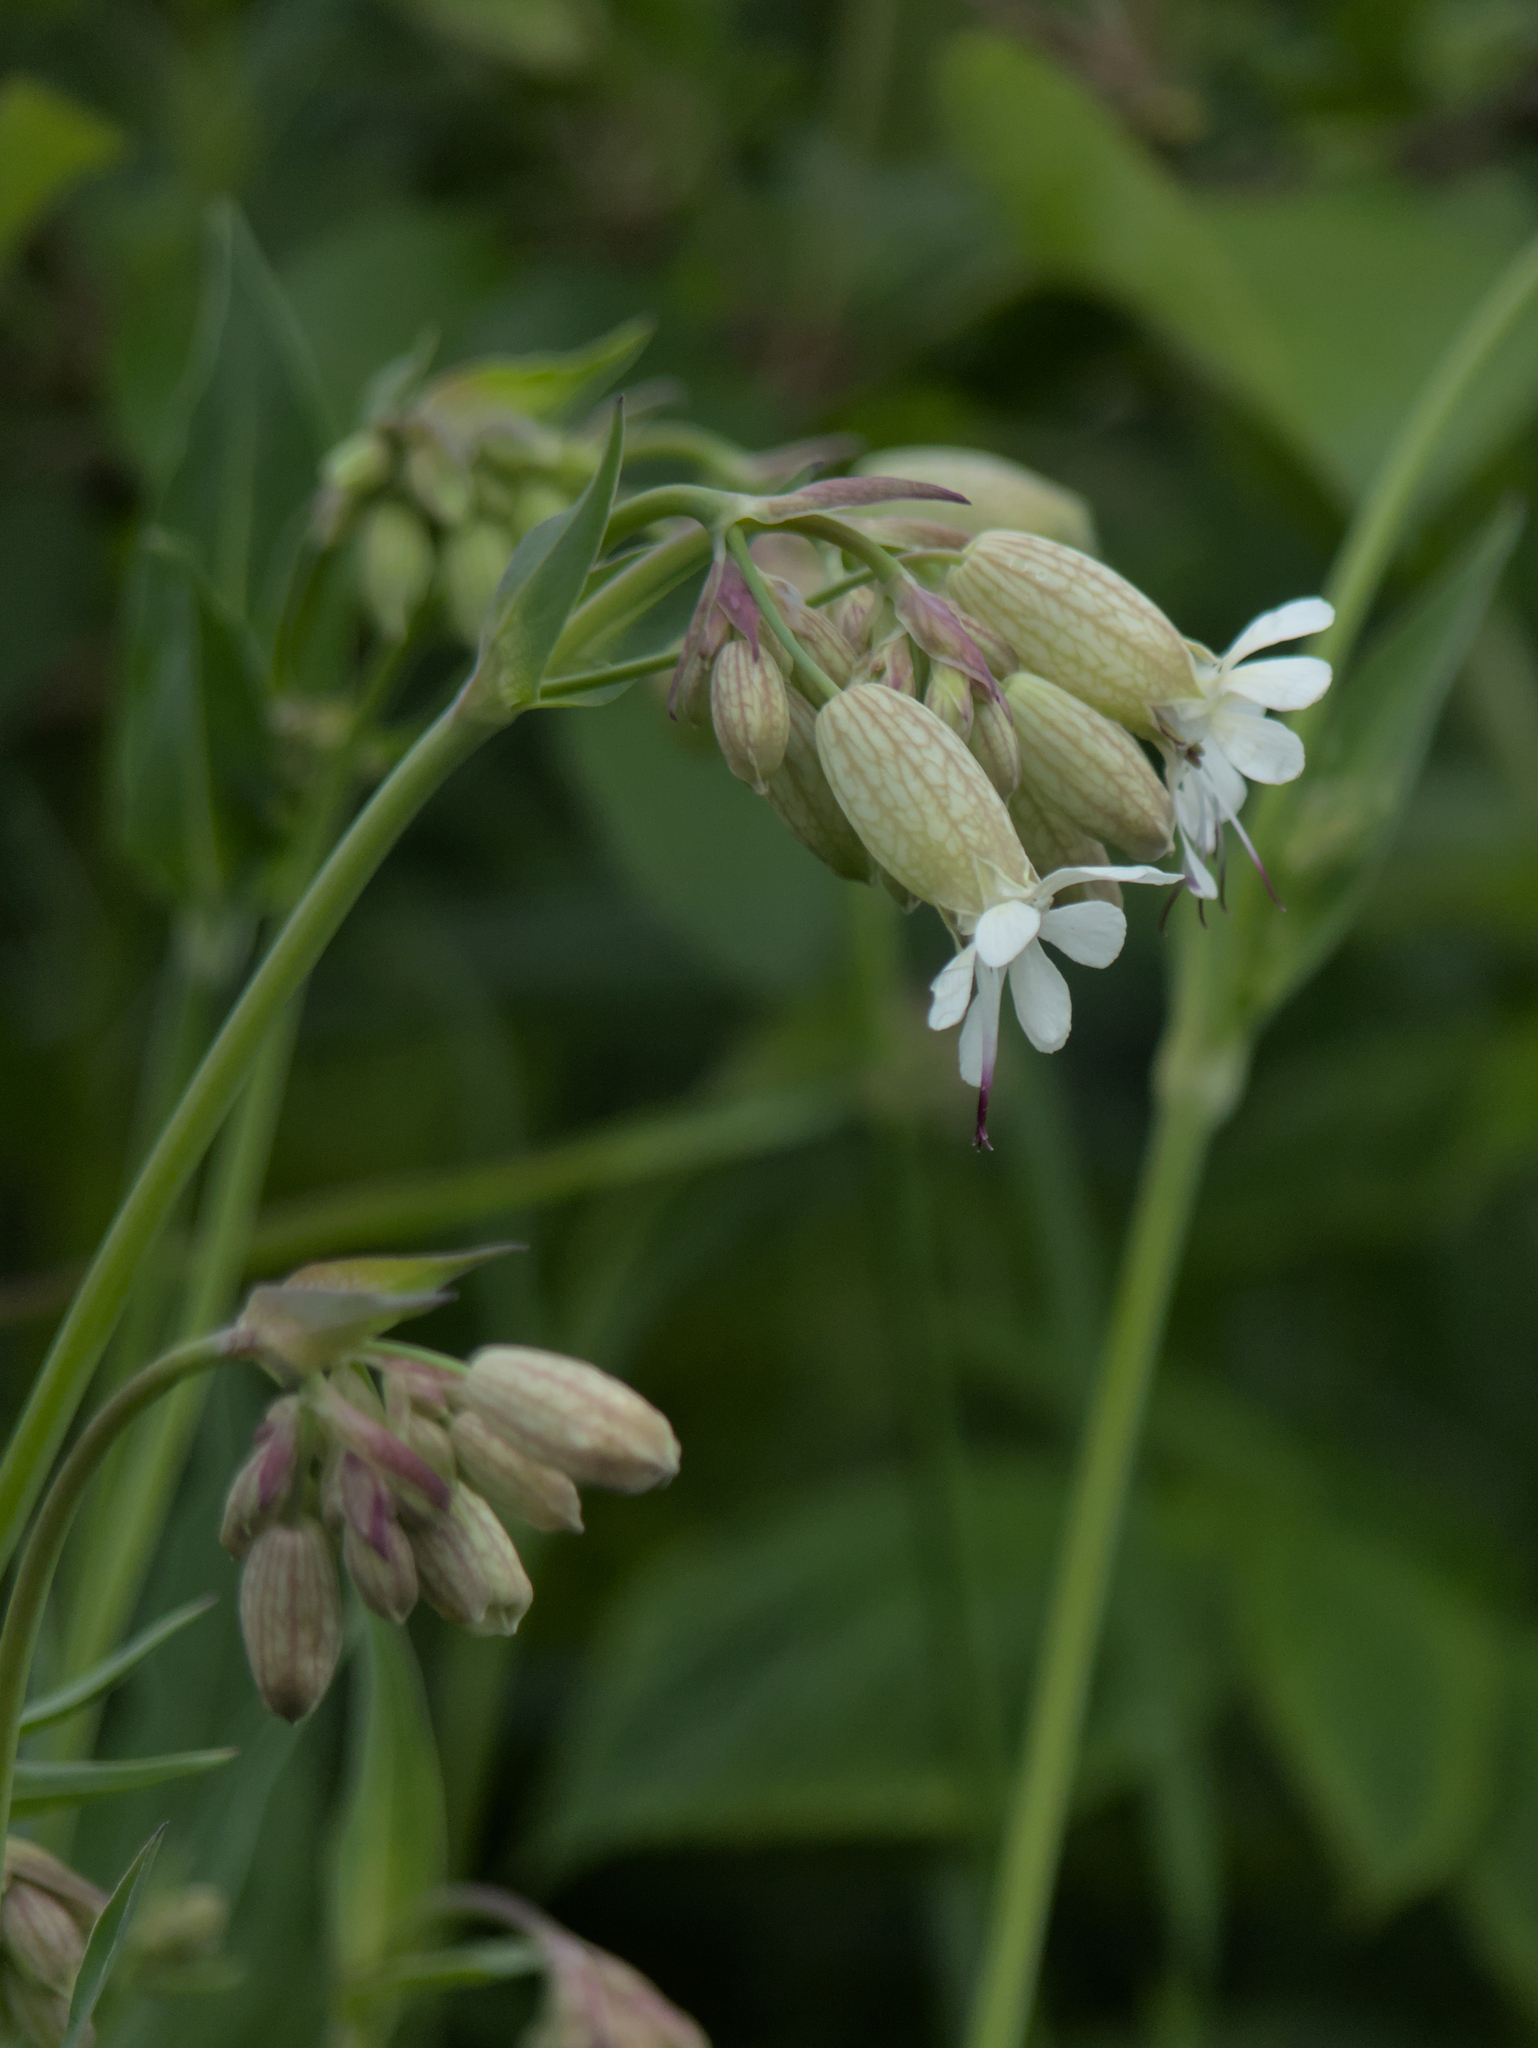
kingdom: Plantae
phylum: Tracheophyta
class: Magnoliopsida
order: Caryophyllales
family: Caryophyllaceae
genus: Silene
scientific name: Silene vulgaris
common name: Bladder campion
